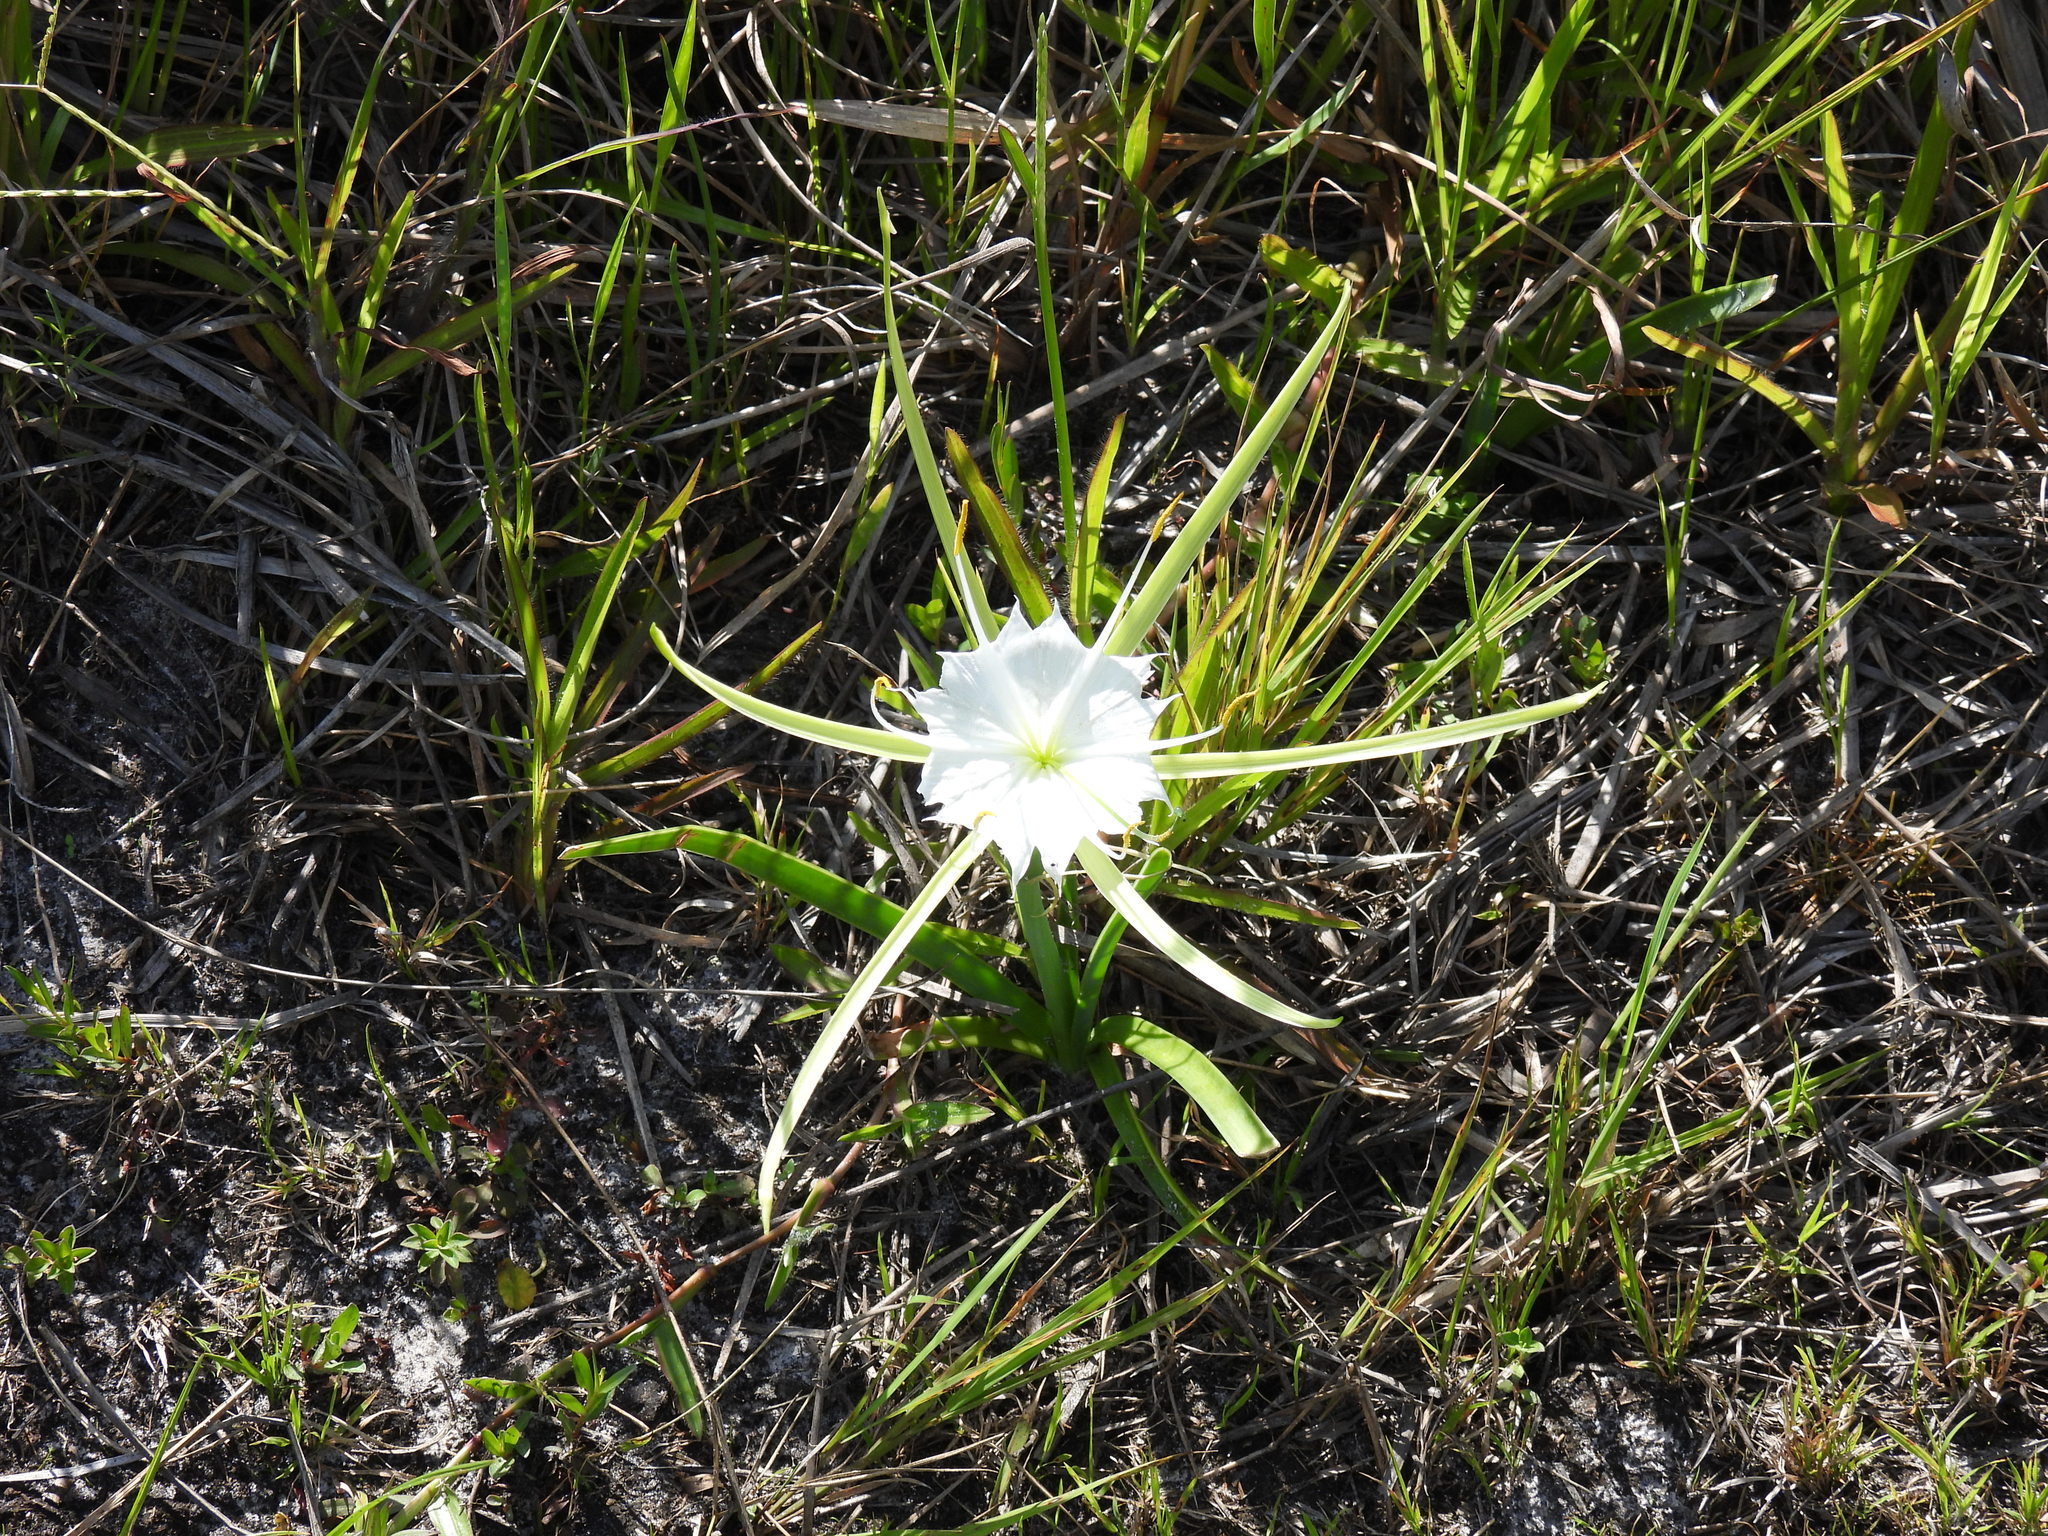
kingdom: Plantae
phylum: Tracheophyta
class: Liliopsida
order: Asparagales
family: Amaryllidaceae
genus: Hymenocallis
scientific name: Hymenocallis palmeri
